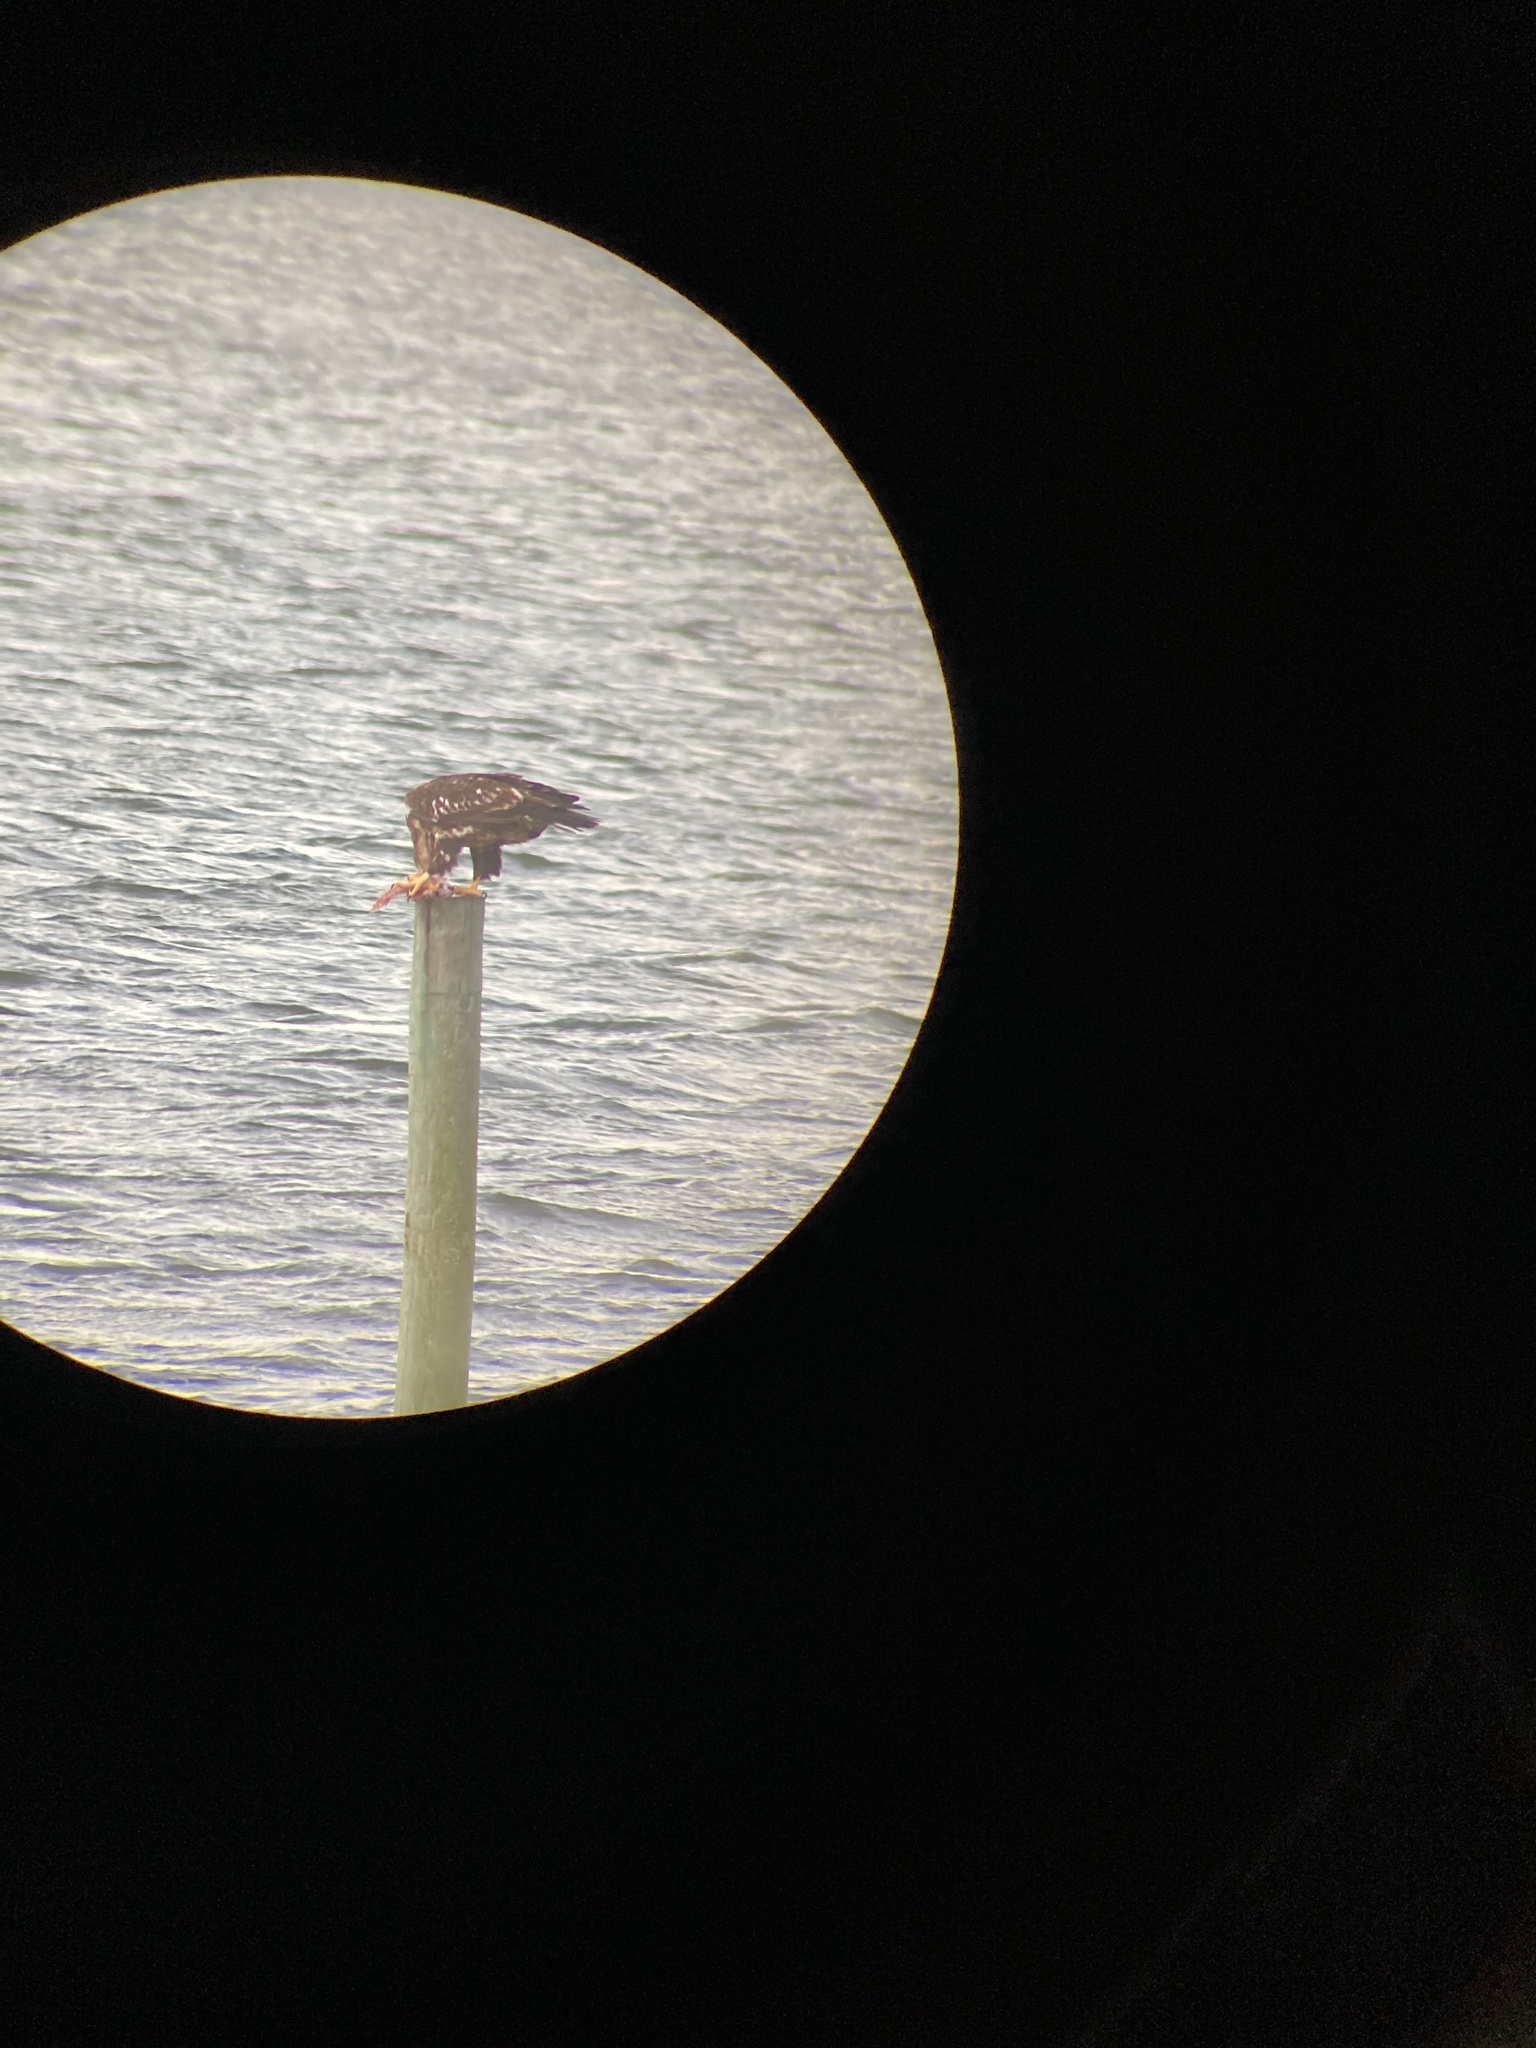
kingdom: Animalia
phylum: Chordata
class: Aves
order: Accipitriformes
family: Accipitridae
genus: Haliaeetus
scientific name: Haliaeetus leucocephalus
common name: Bald eagle
